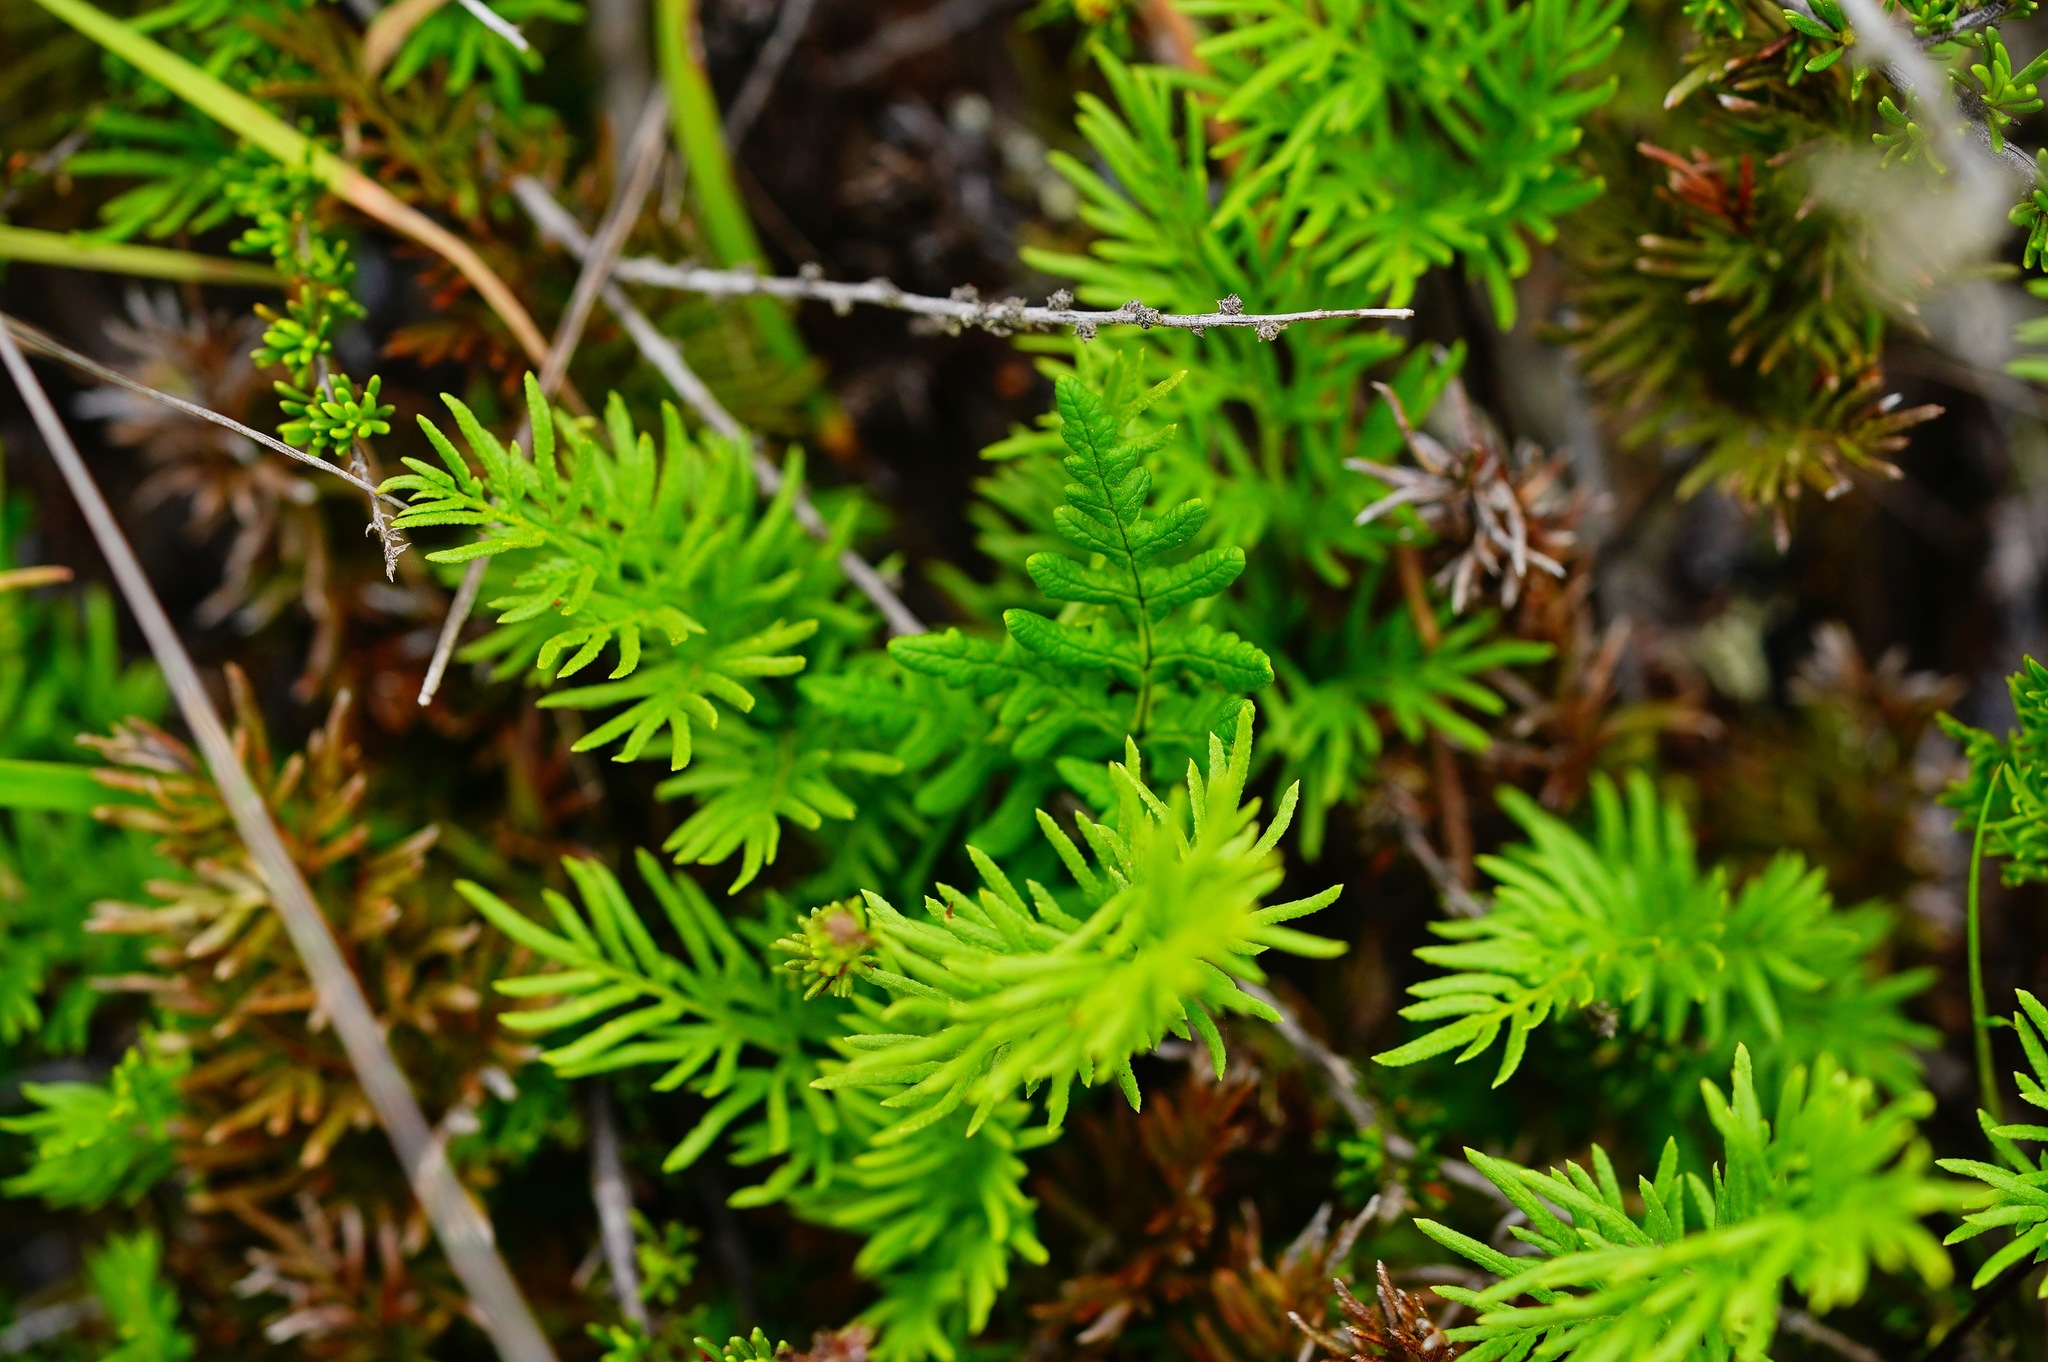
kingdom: Plantae
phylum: Tracheophyta
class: Polypodiopsida
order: Polypodiales
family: Pteridaceae
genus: Aspidotis
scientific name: Aspidotis densa
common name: Indian's dream
